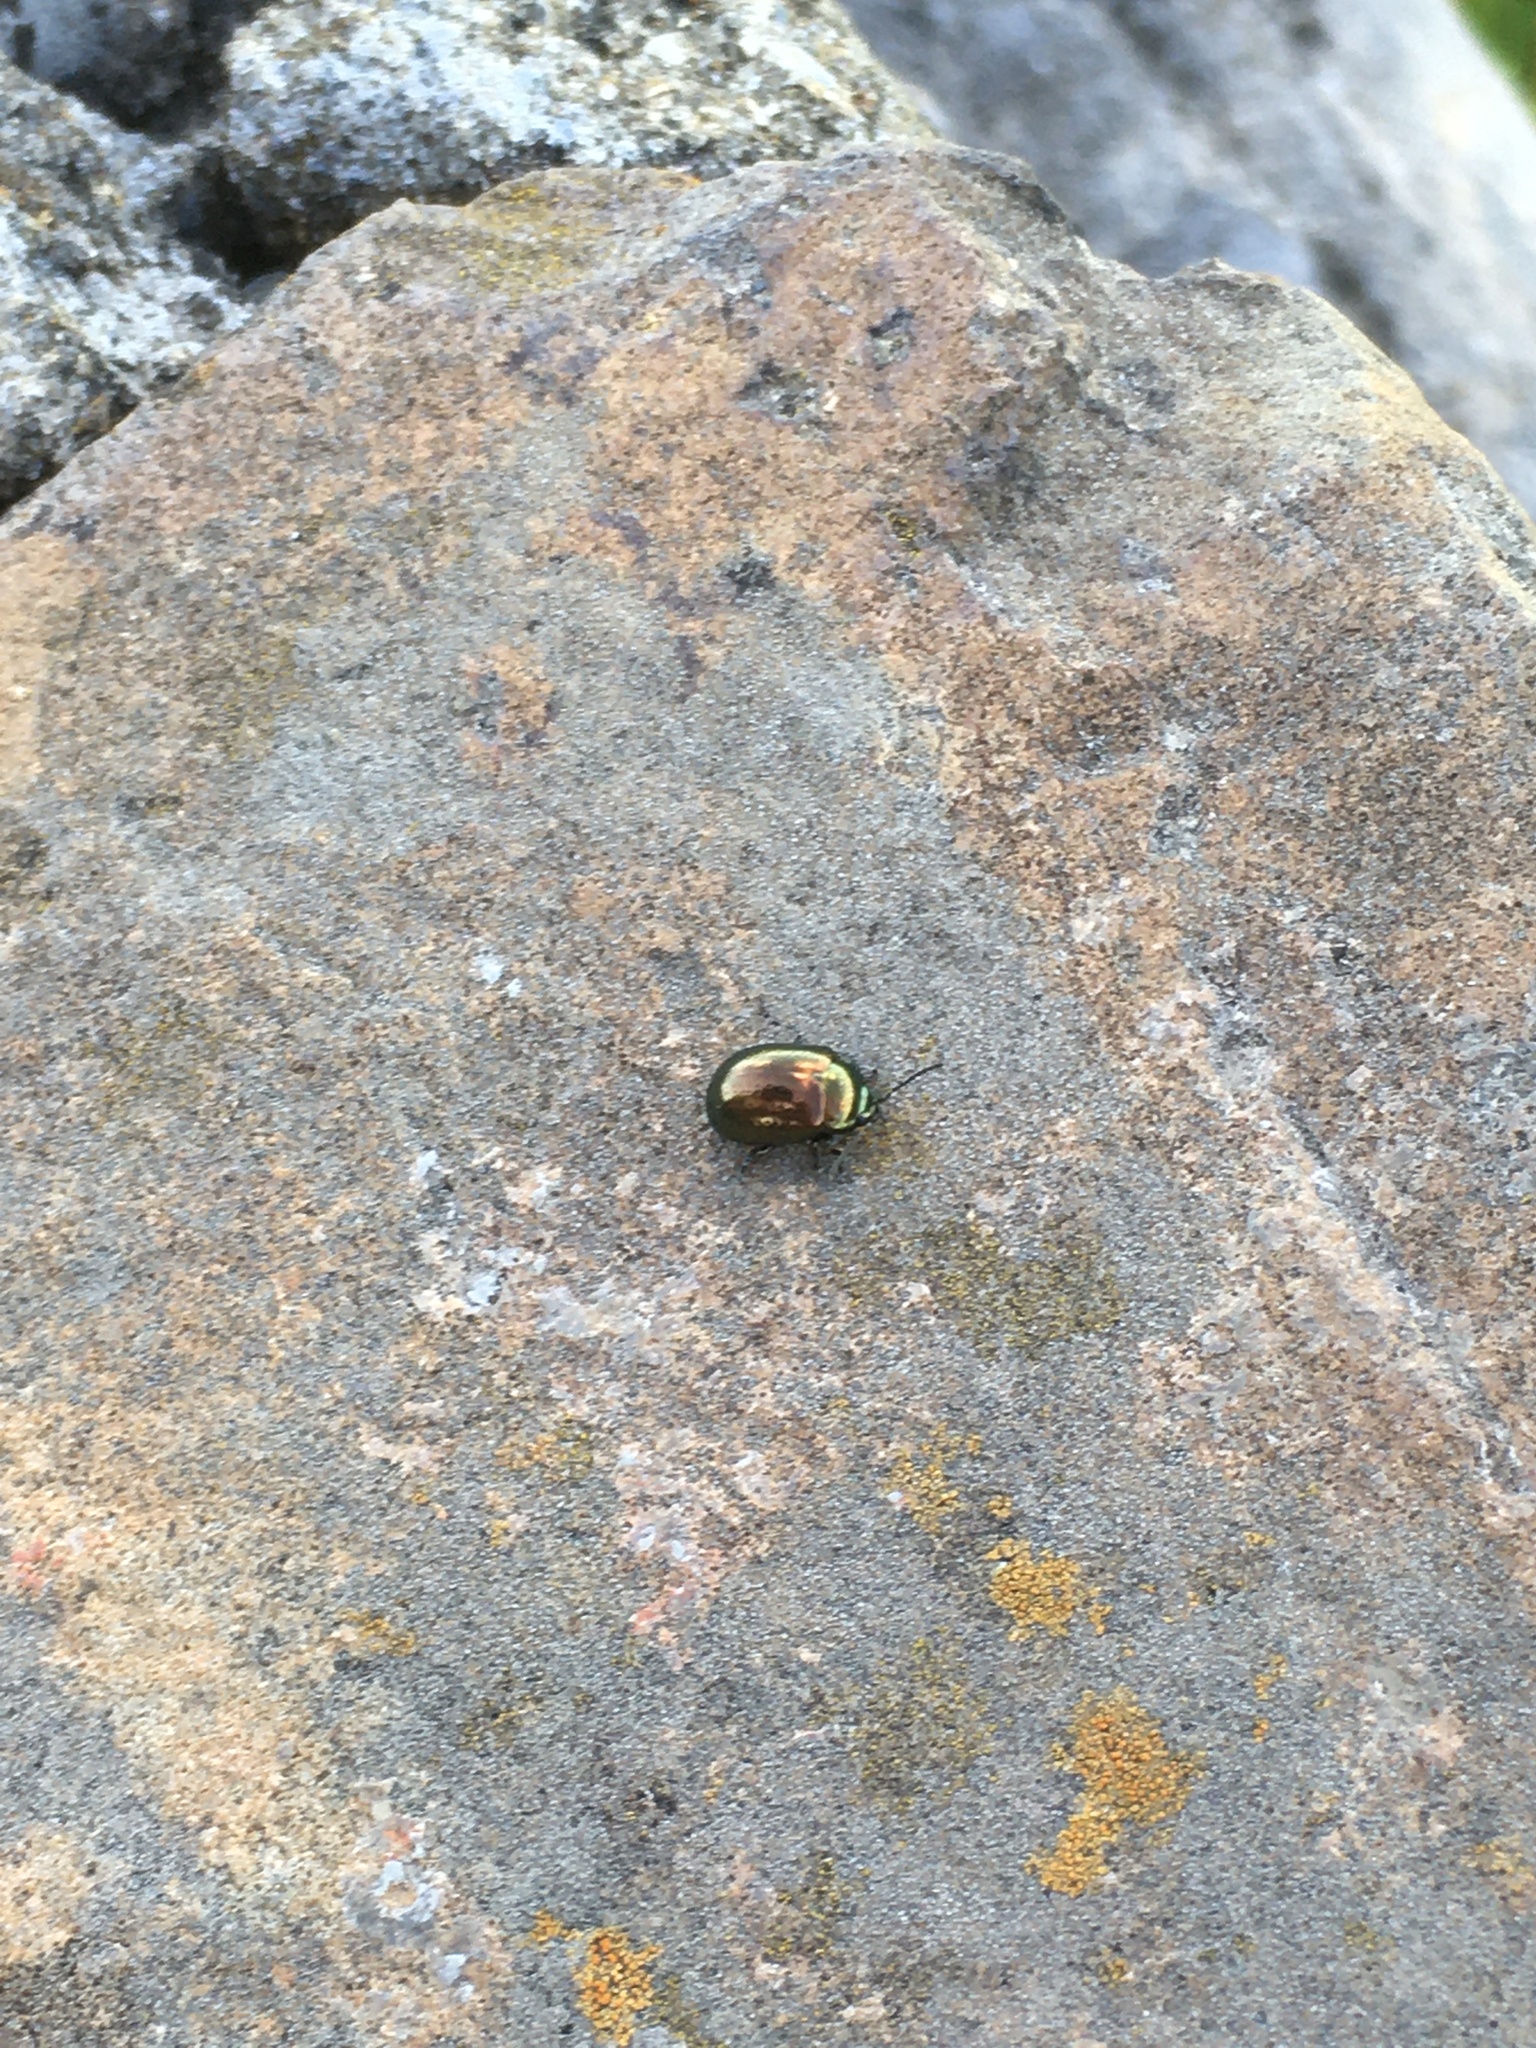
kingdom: Animalia
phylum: Arthropoda
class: Insecta
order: Coleoptera
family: Chrysomelidae
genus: Chrysolina
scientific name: Chrysolina hyperici
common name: St. johnswort beetle
